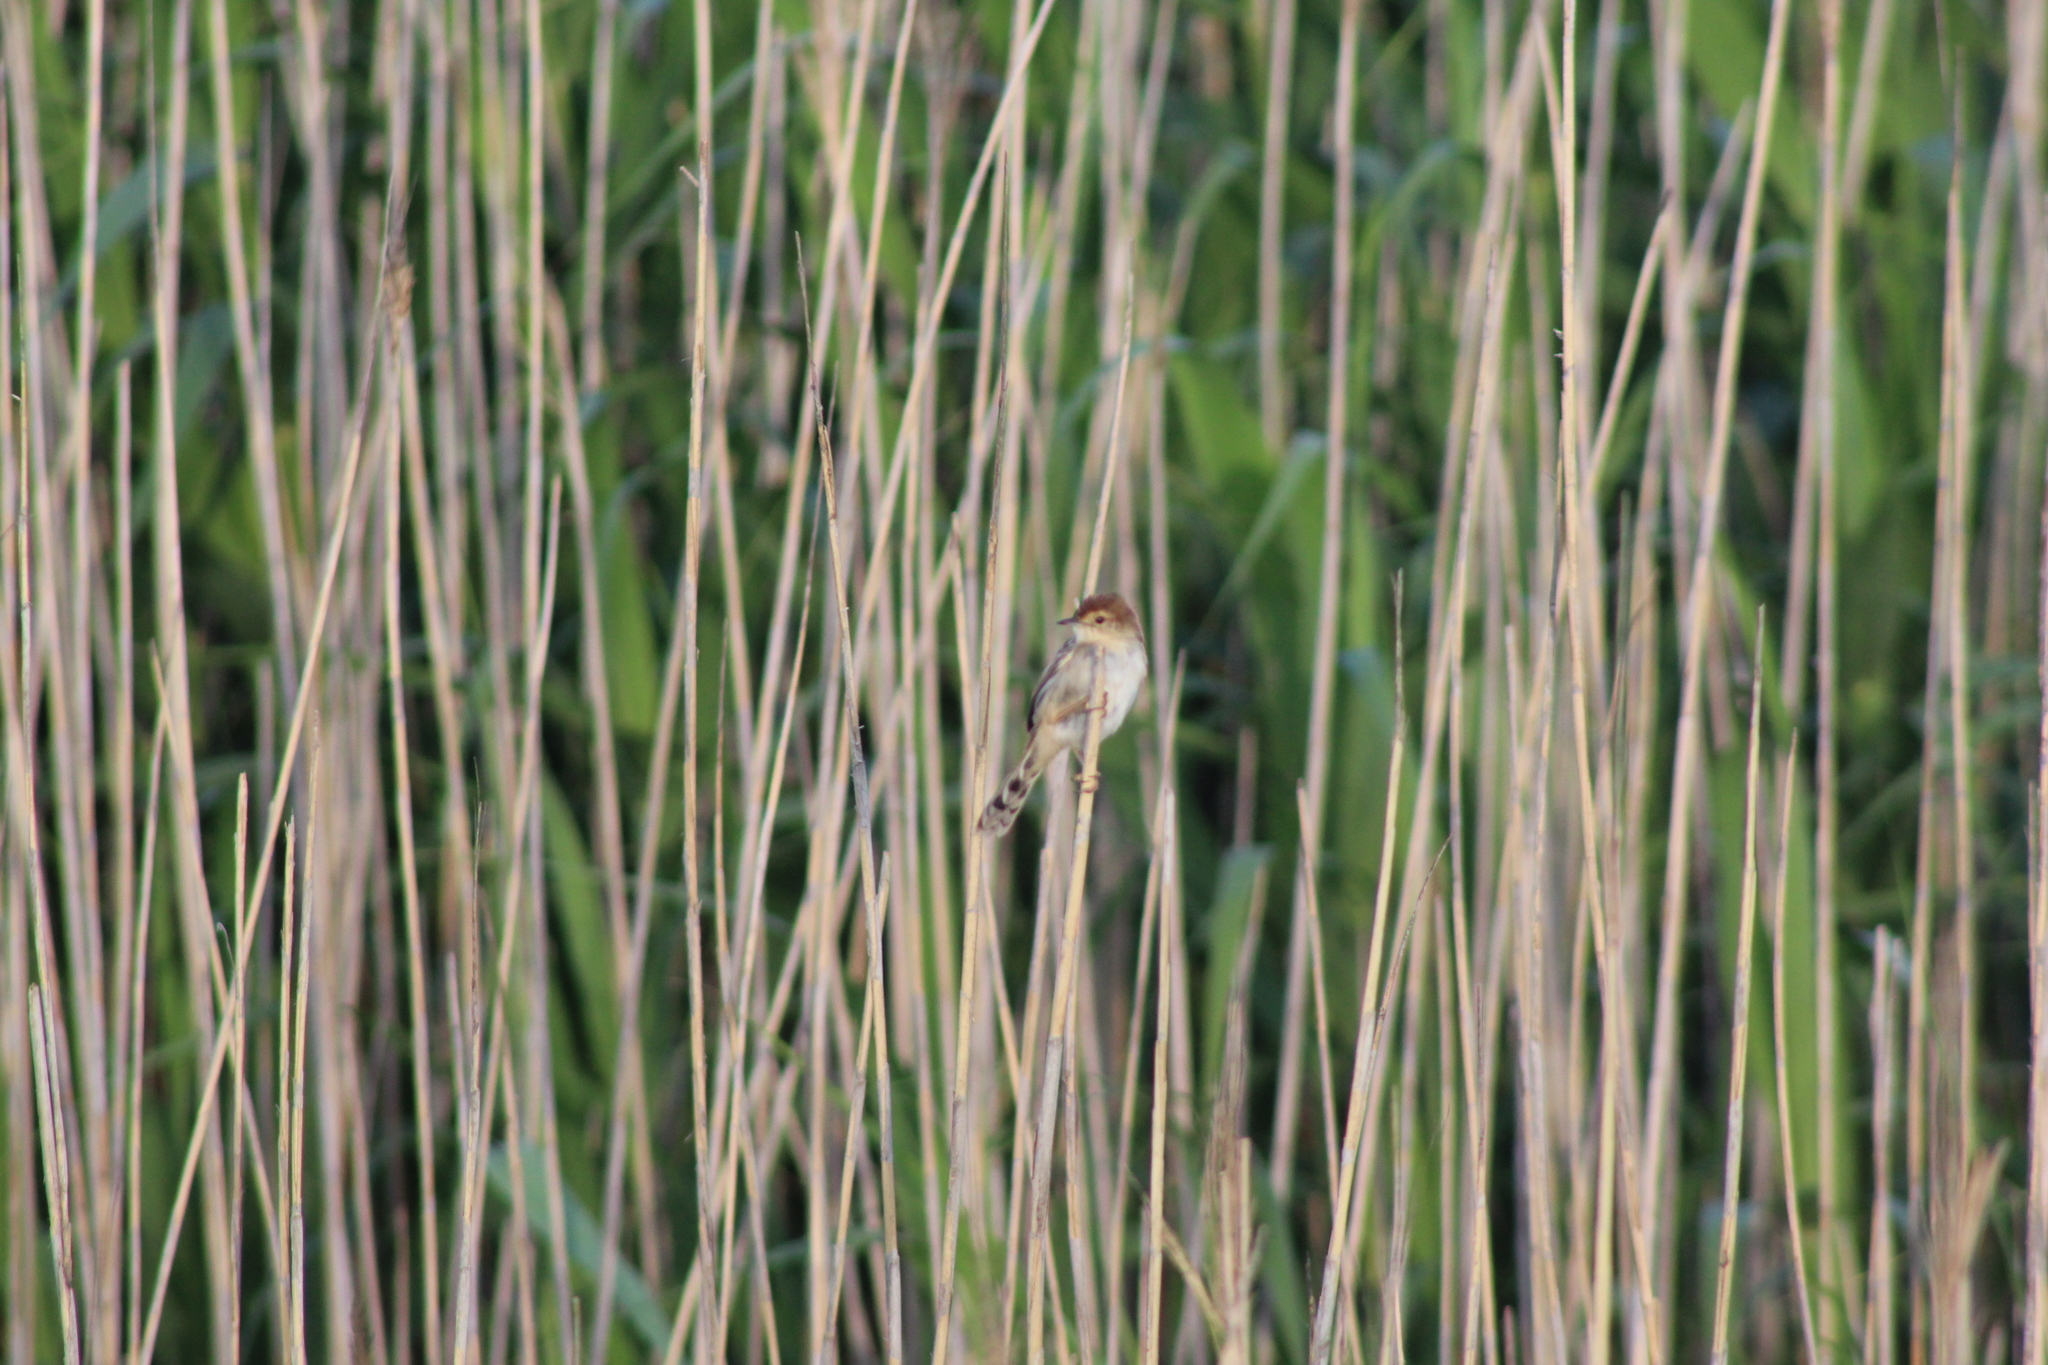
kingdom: Animalia
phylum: Chordata
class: Aves
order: Passeriformes
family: Cisticolidae
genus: Cisticola
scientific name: Cisticola tinniens
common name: Levaillant's cisticola
